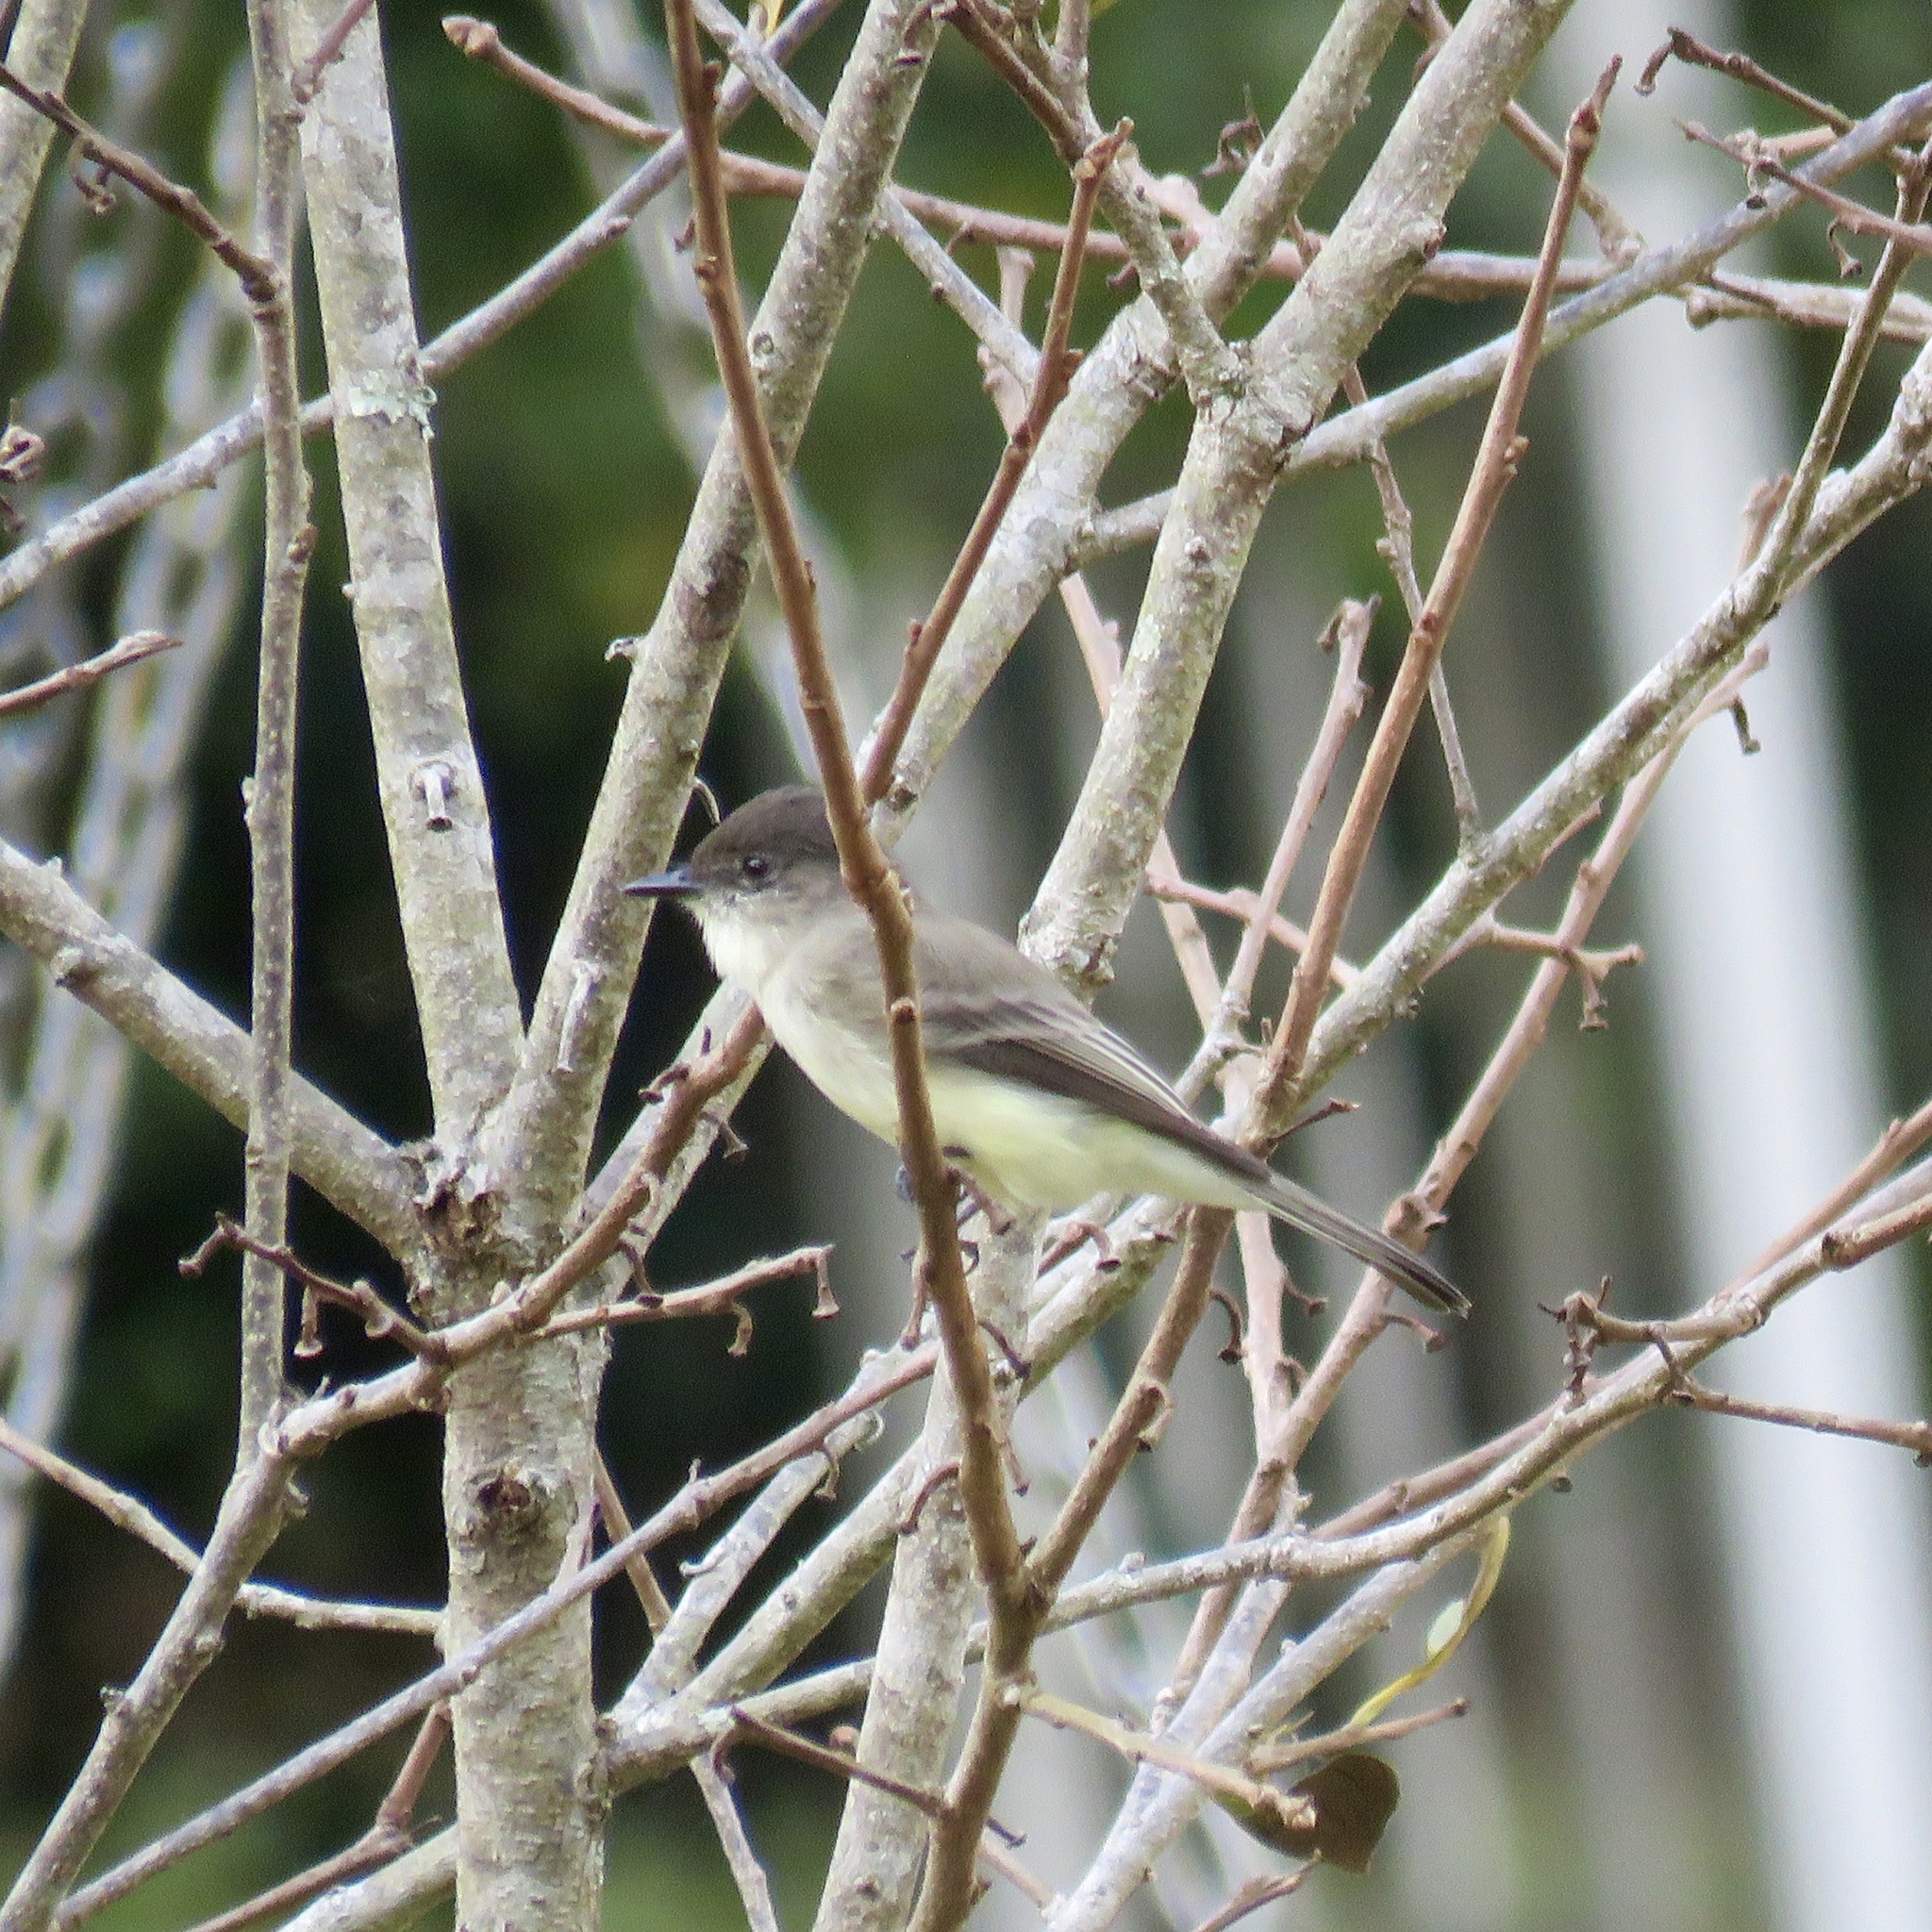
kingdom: Animalia
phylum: Chordata
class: Aves
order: Passeriformes
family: Tyrannidae
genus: Sayornis
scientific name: Sayornis phoebe
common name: Eastern phoebe
